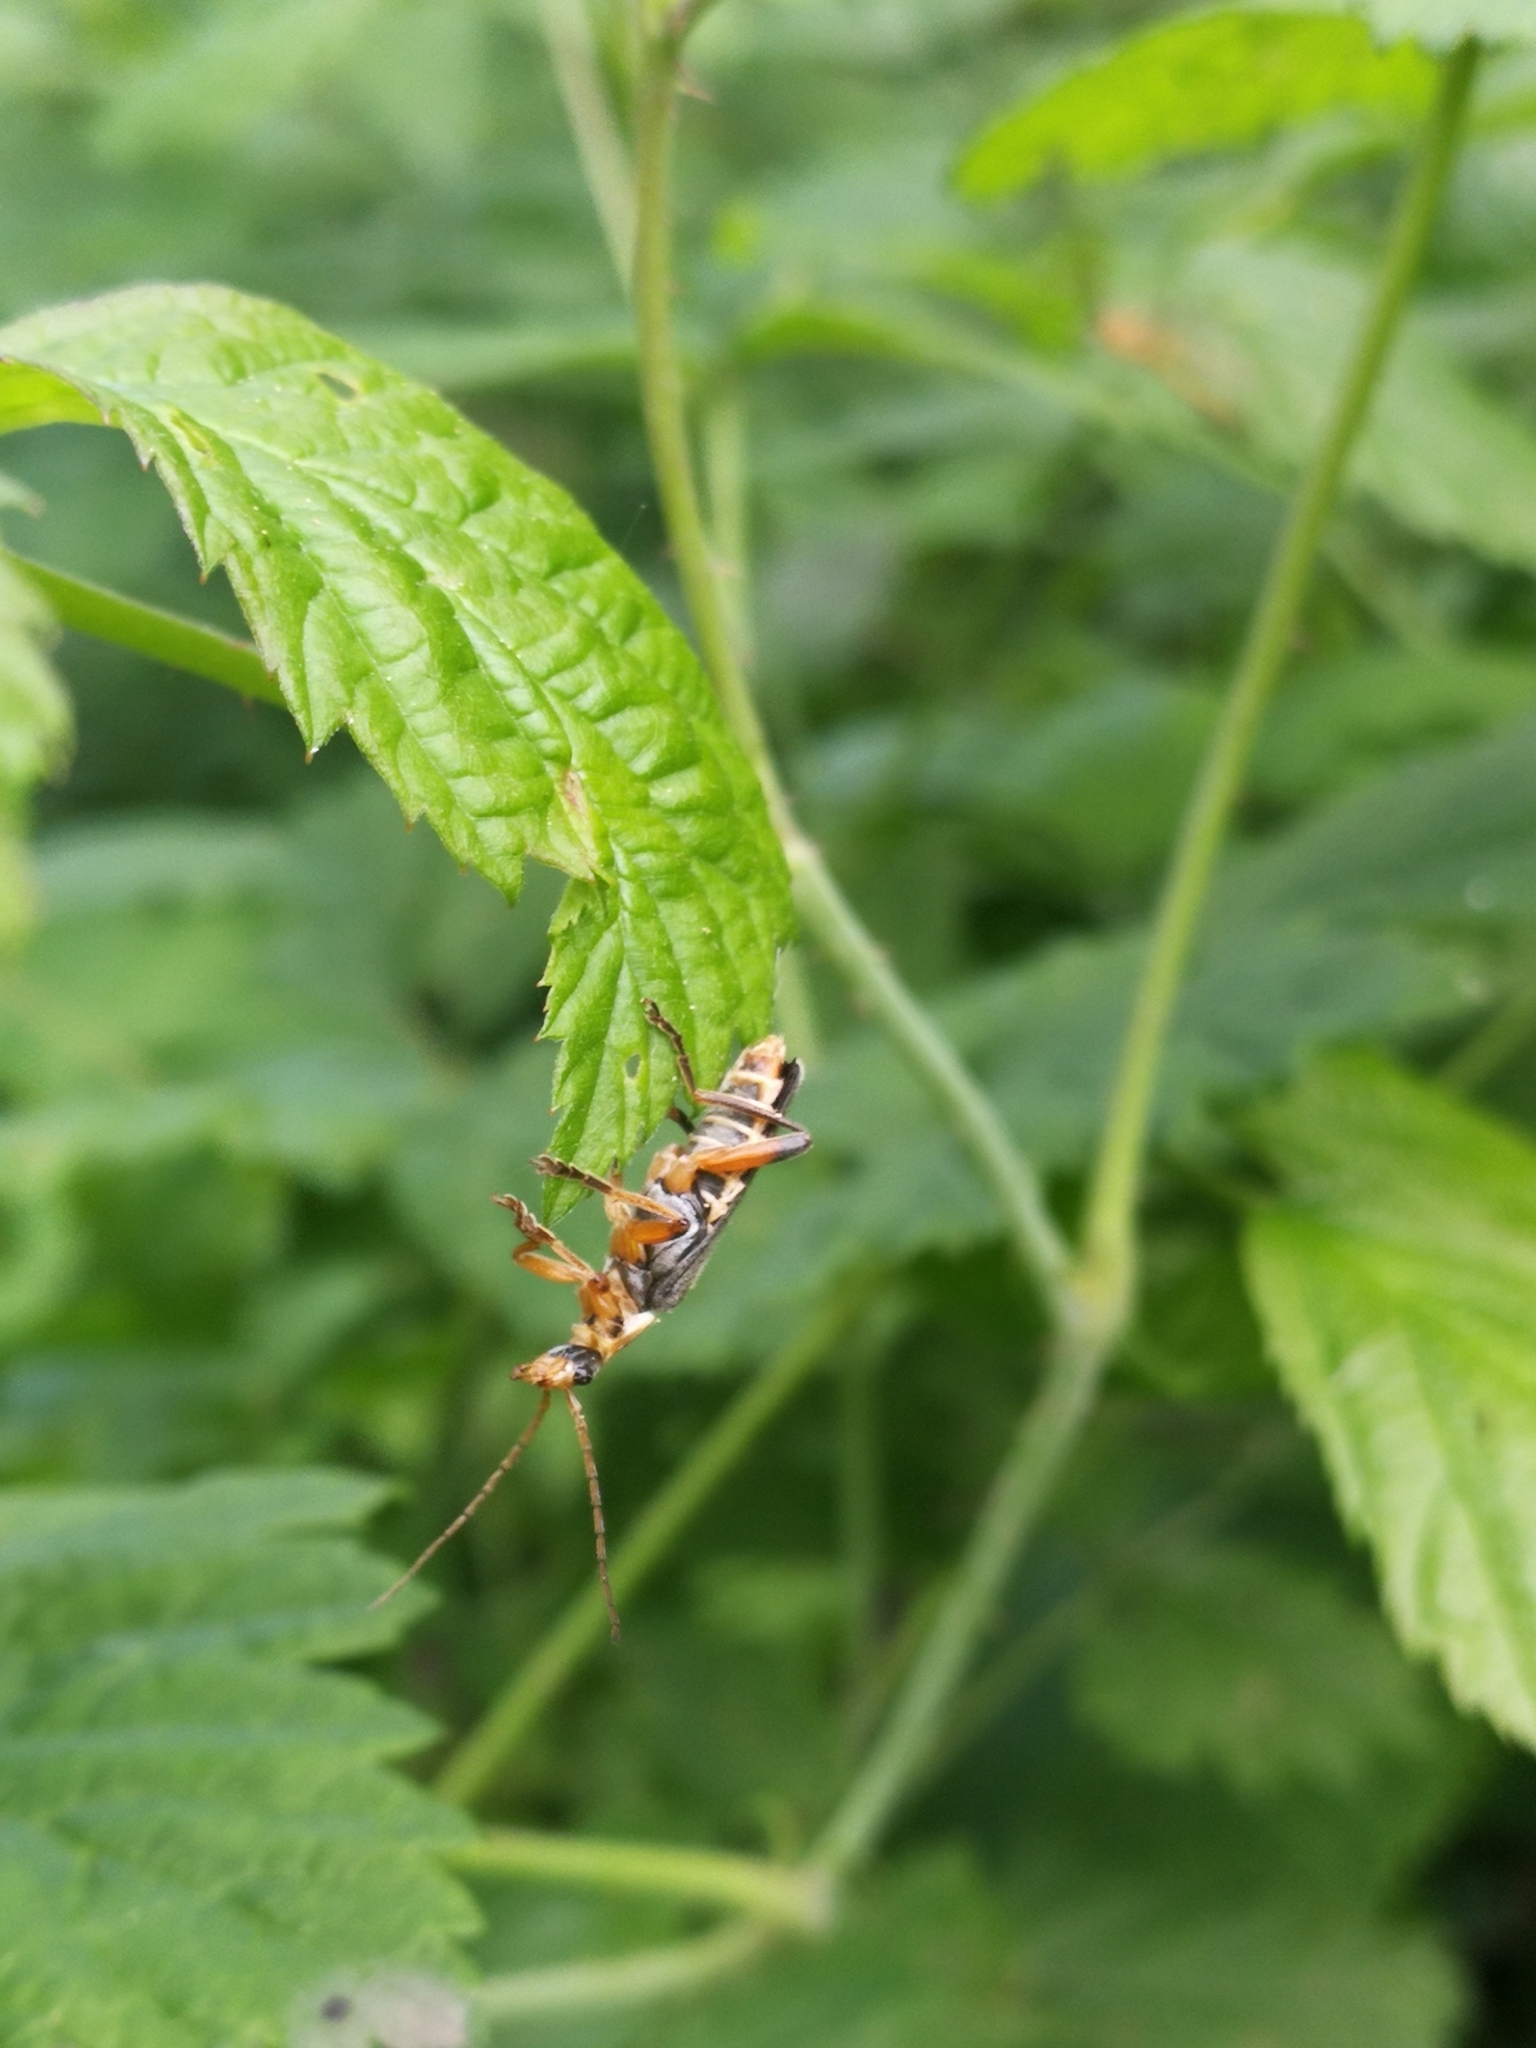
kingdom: Animalia
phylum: Arthropoda
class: Insecta
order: Coleoptera
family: Cantharidae
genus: Cantharis
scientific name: Cantharis nigricans
